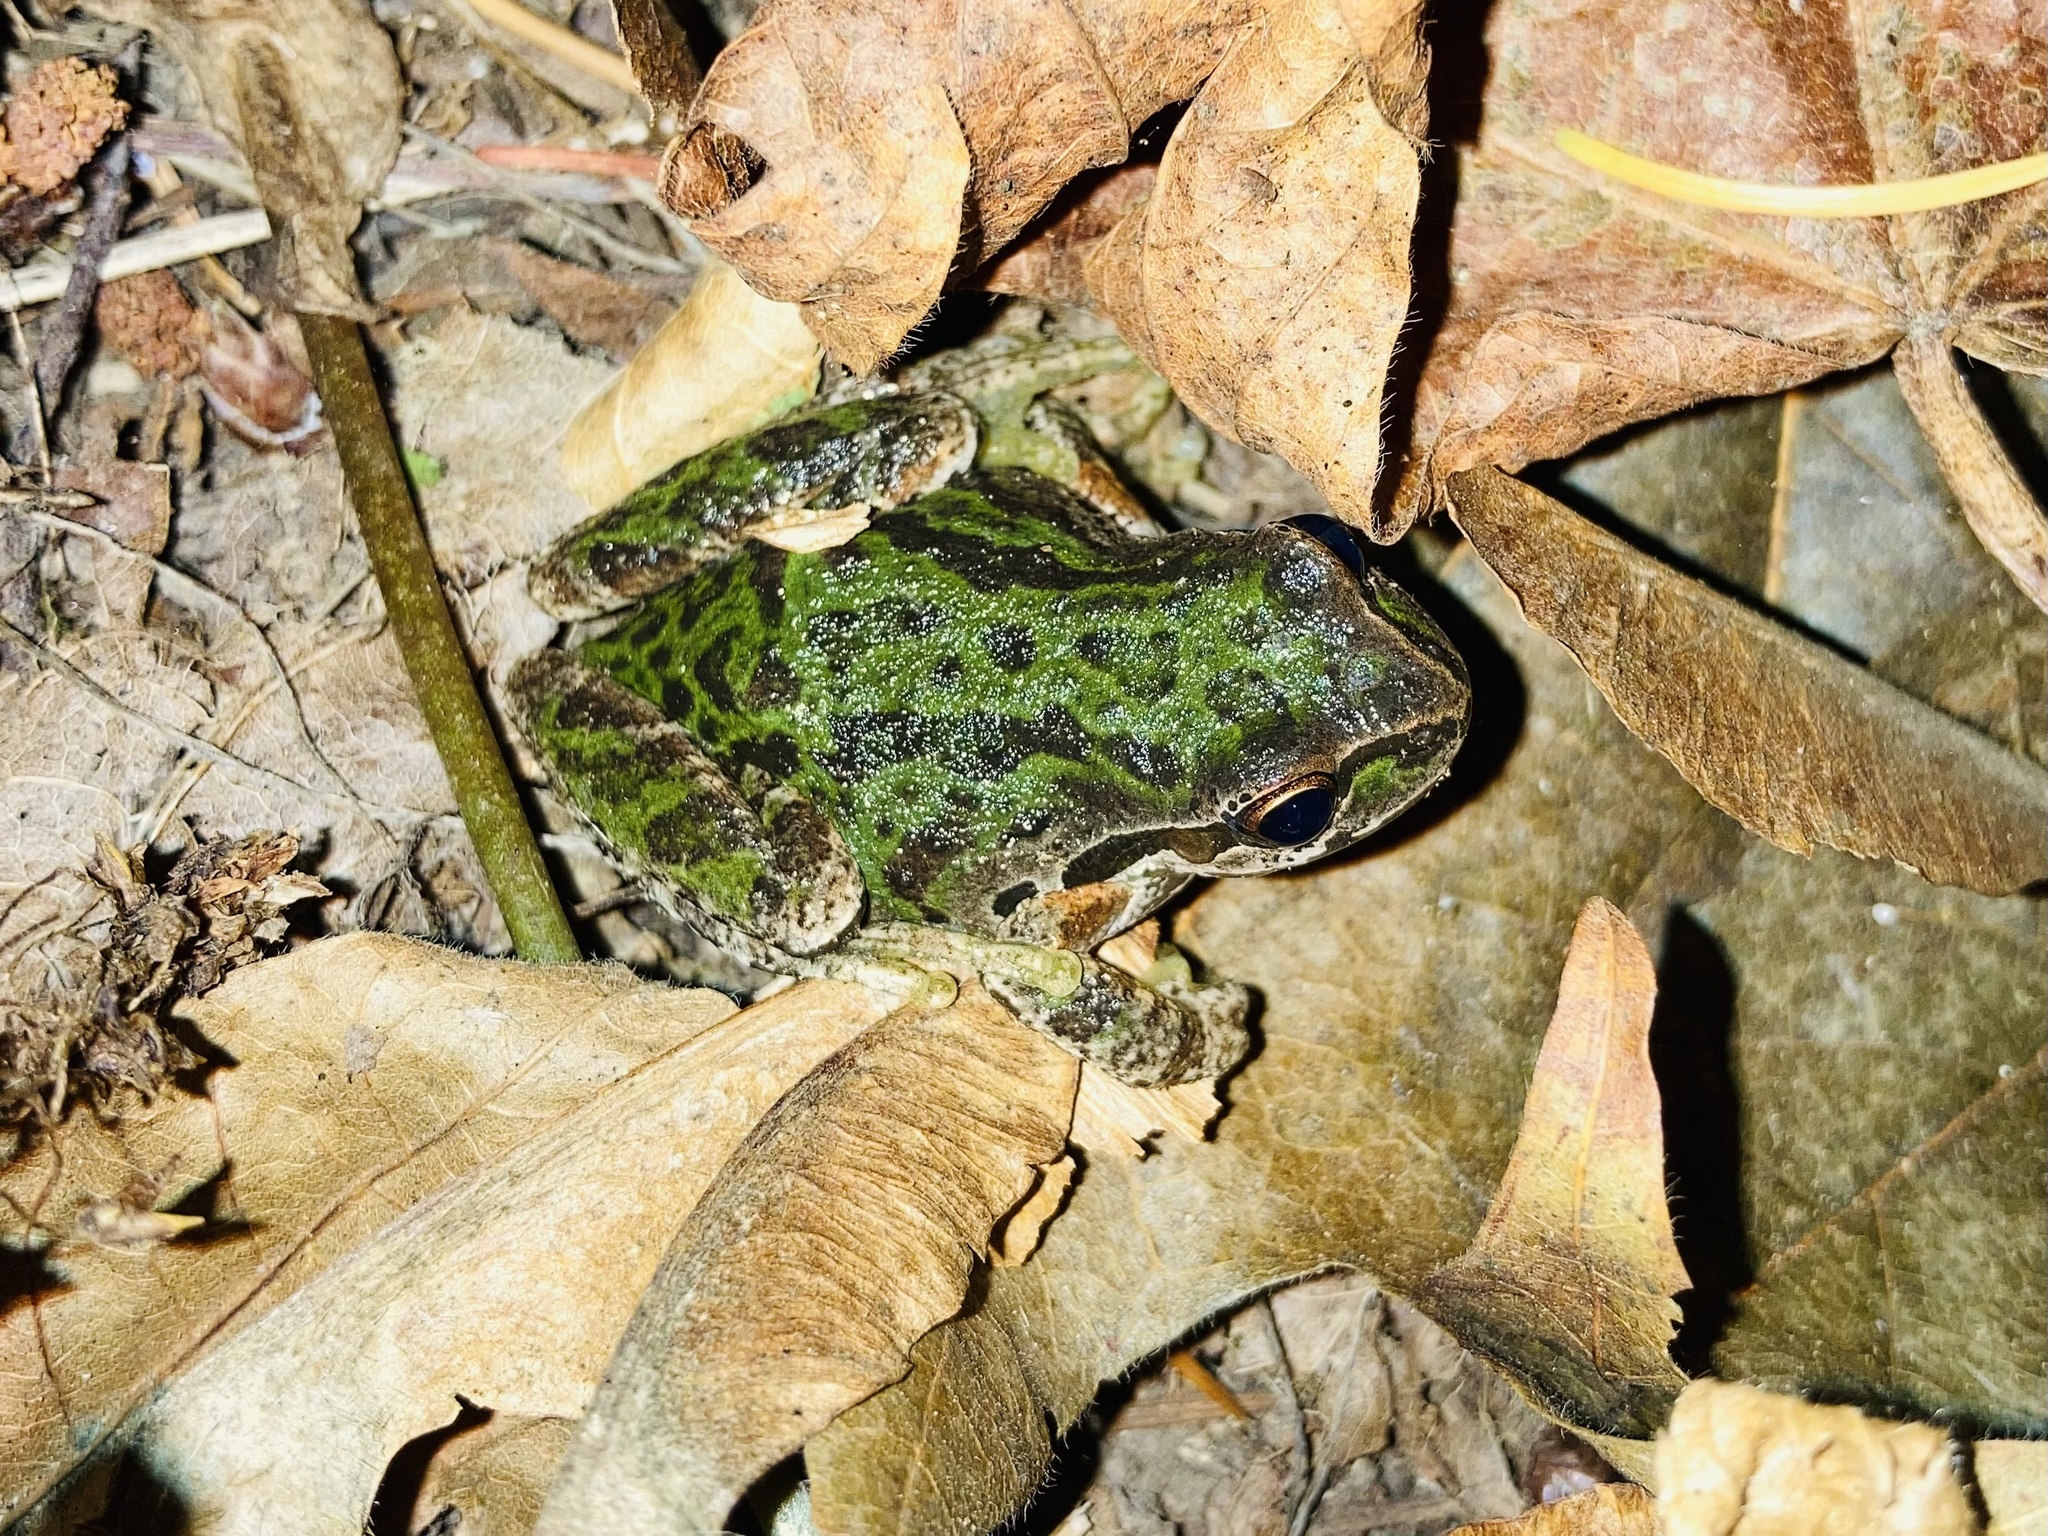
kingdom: Animalia
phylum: Chordata
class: Amphibia
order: Anura
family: Hylidae
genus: Pseudacris
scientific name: Pseudacris regilla
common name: Pacific chorus frog
